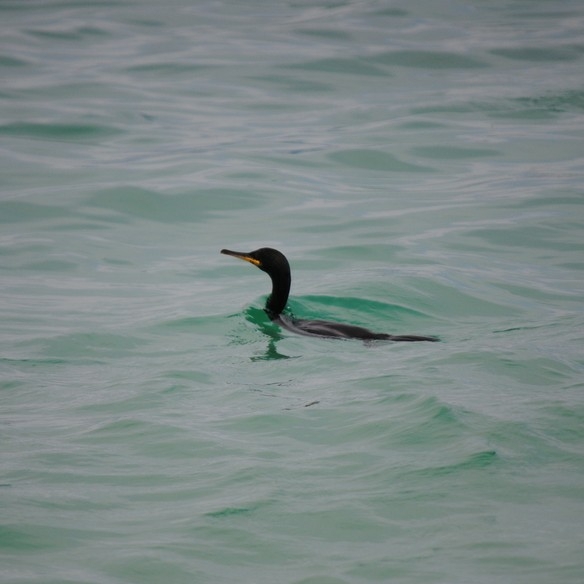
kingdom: Animalia
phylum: Chordata
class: Aves
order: Suliformes
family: Phalacrocoracidae
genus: Phalacrocorax
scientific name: Phalacrocorax aristotelis
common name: European shag
